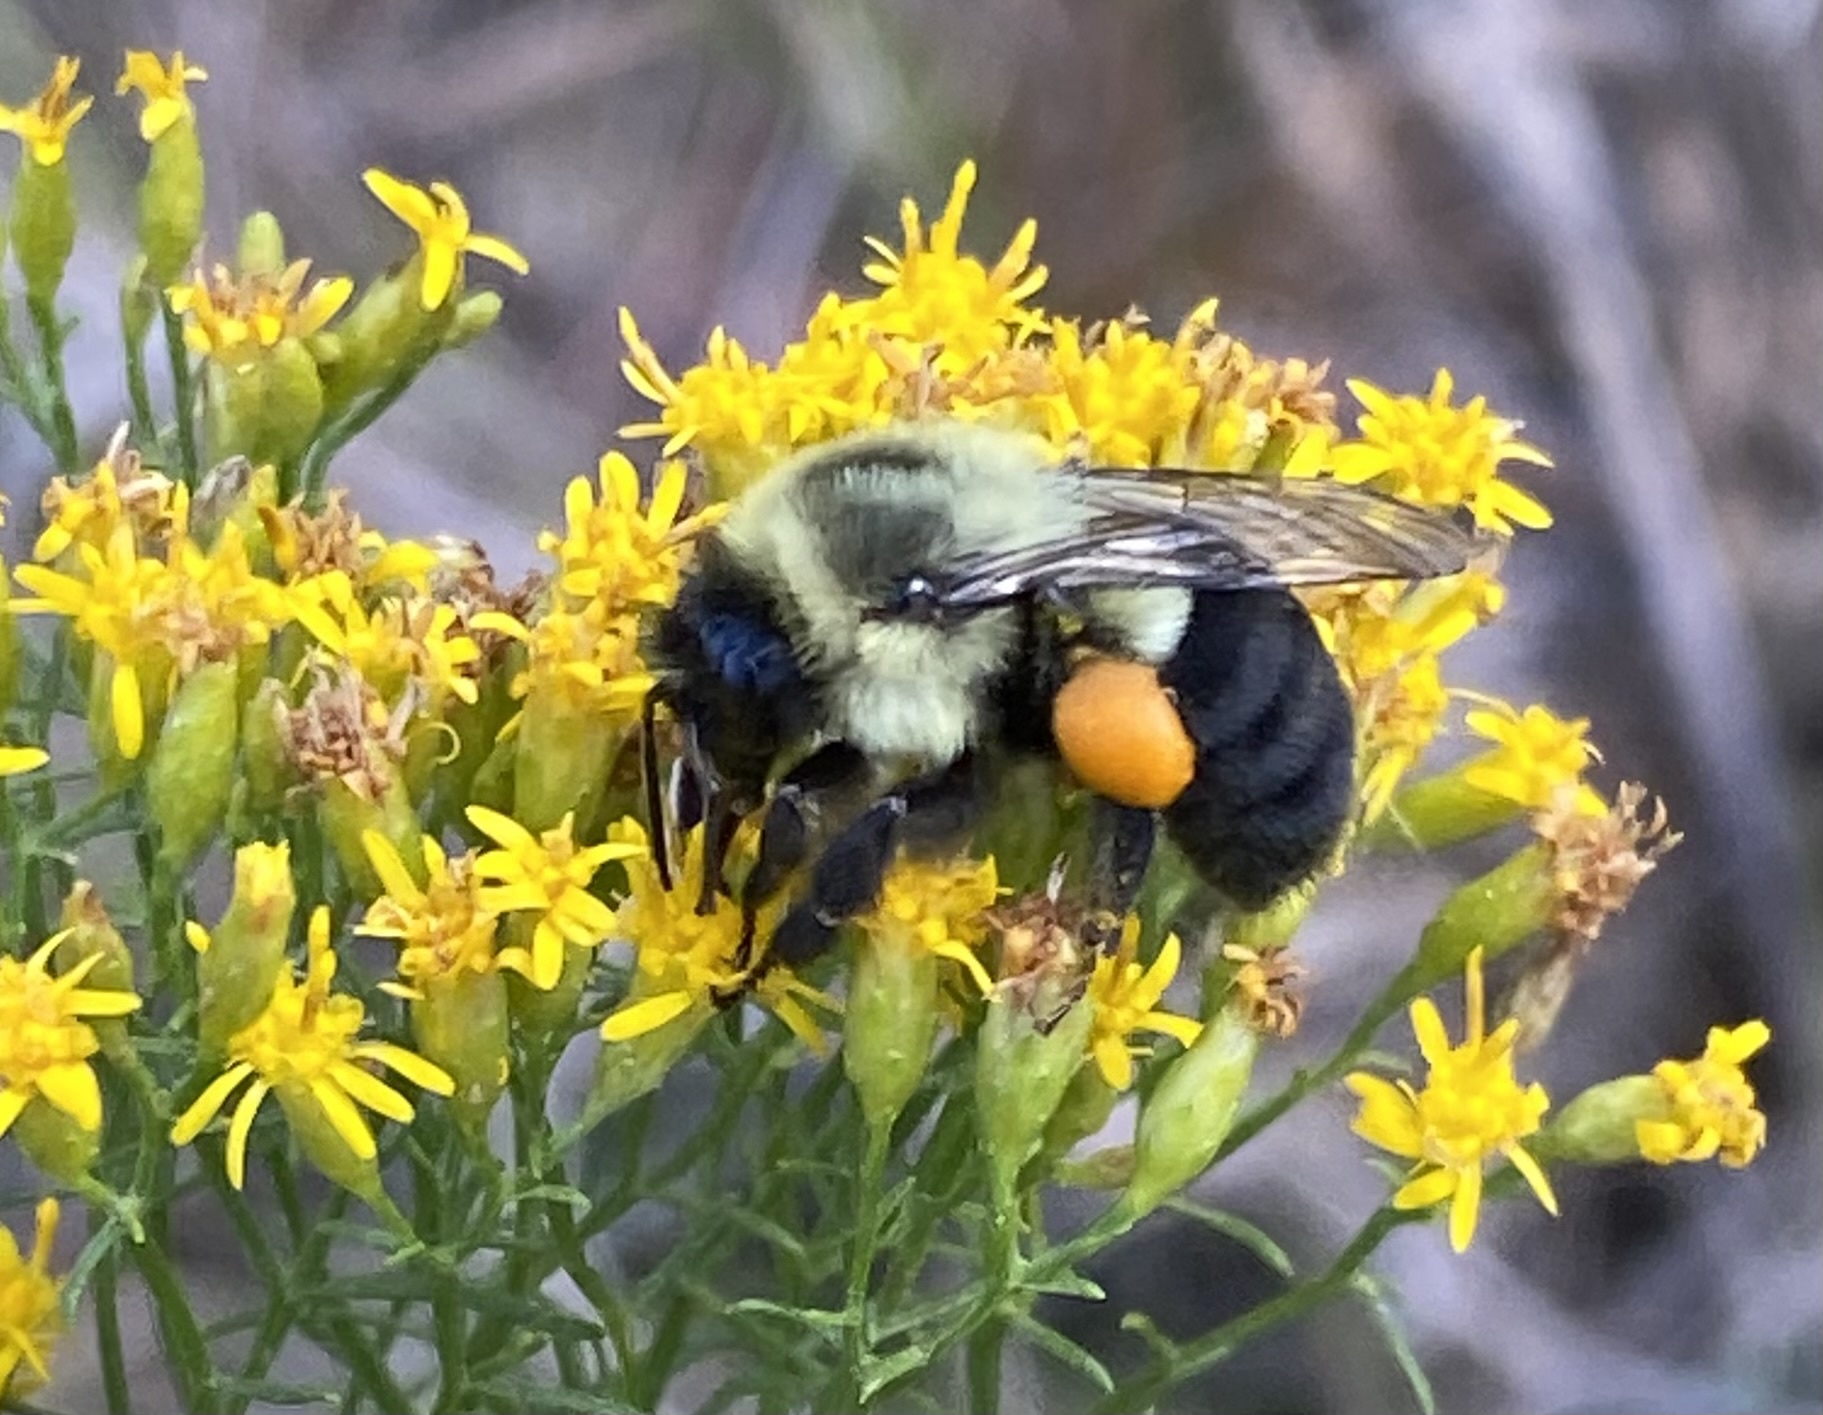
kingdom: Animalia
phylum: Arthropoda
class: Insecta
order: Hymenoptera
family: Apidae
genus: Bombus
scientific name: Bombus impatiens
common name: Common eastern bumble bee
